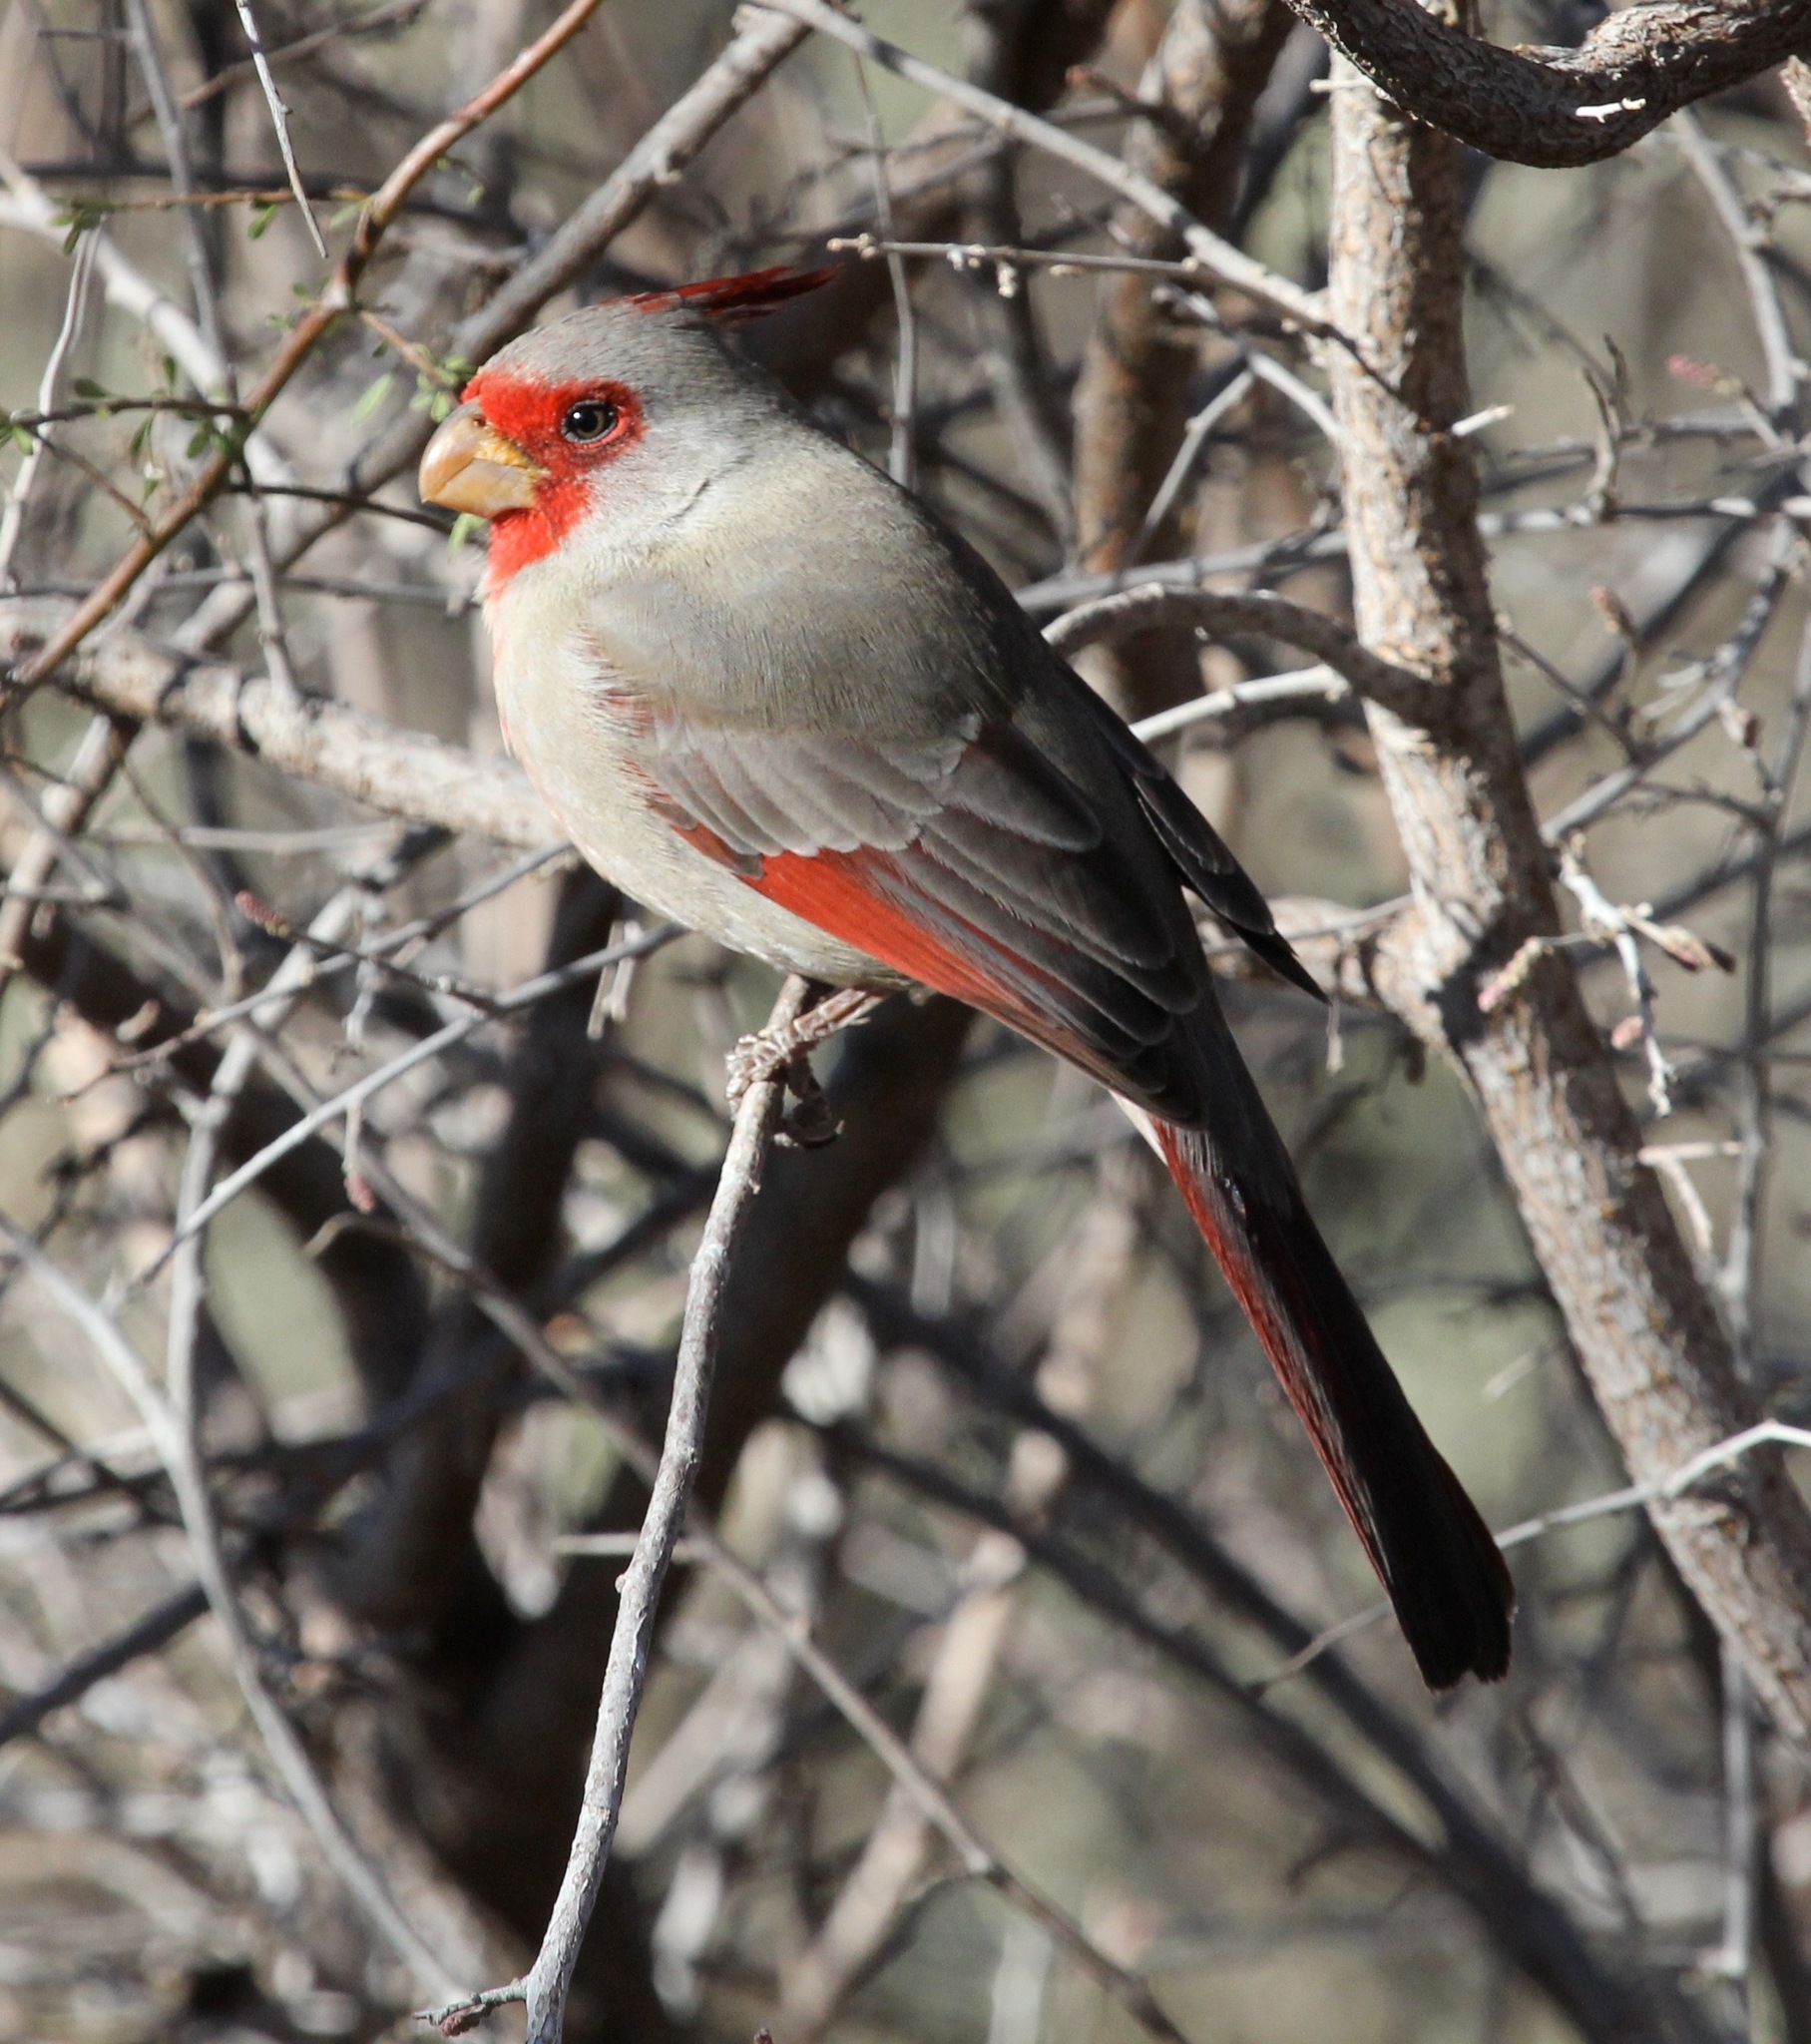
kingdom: Animalia
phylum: Chordata
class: Aves
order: Passeriformes
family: Cardinalidae
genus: Cardinalis
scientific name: Cardinalis sinuatus
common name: Pyrrhuloxia
